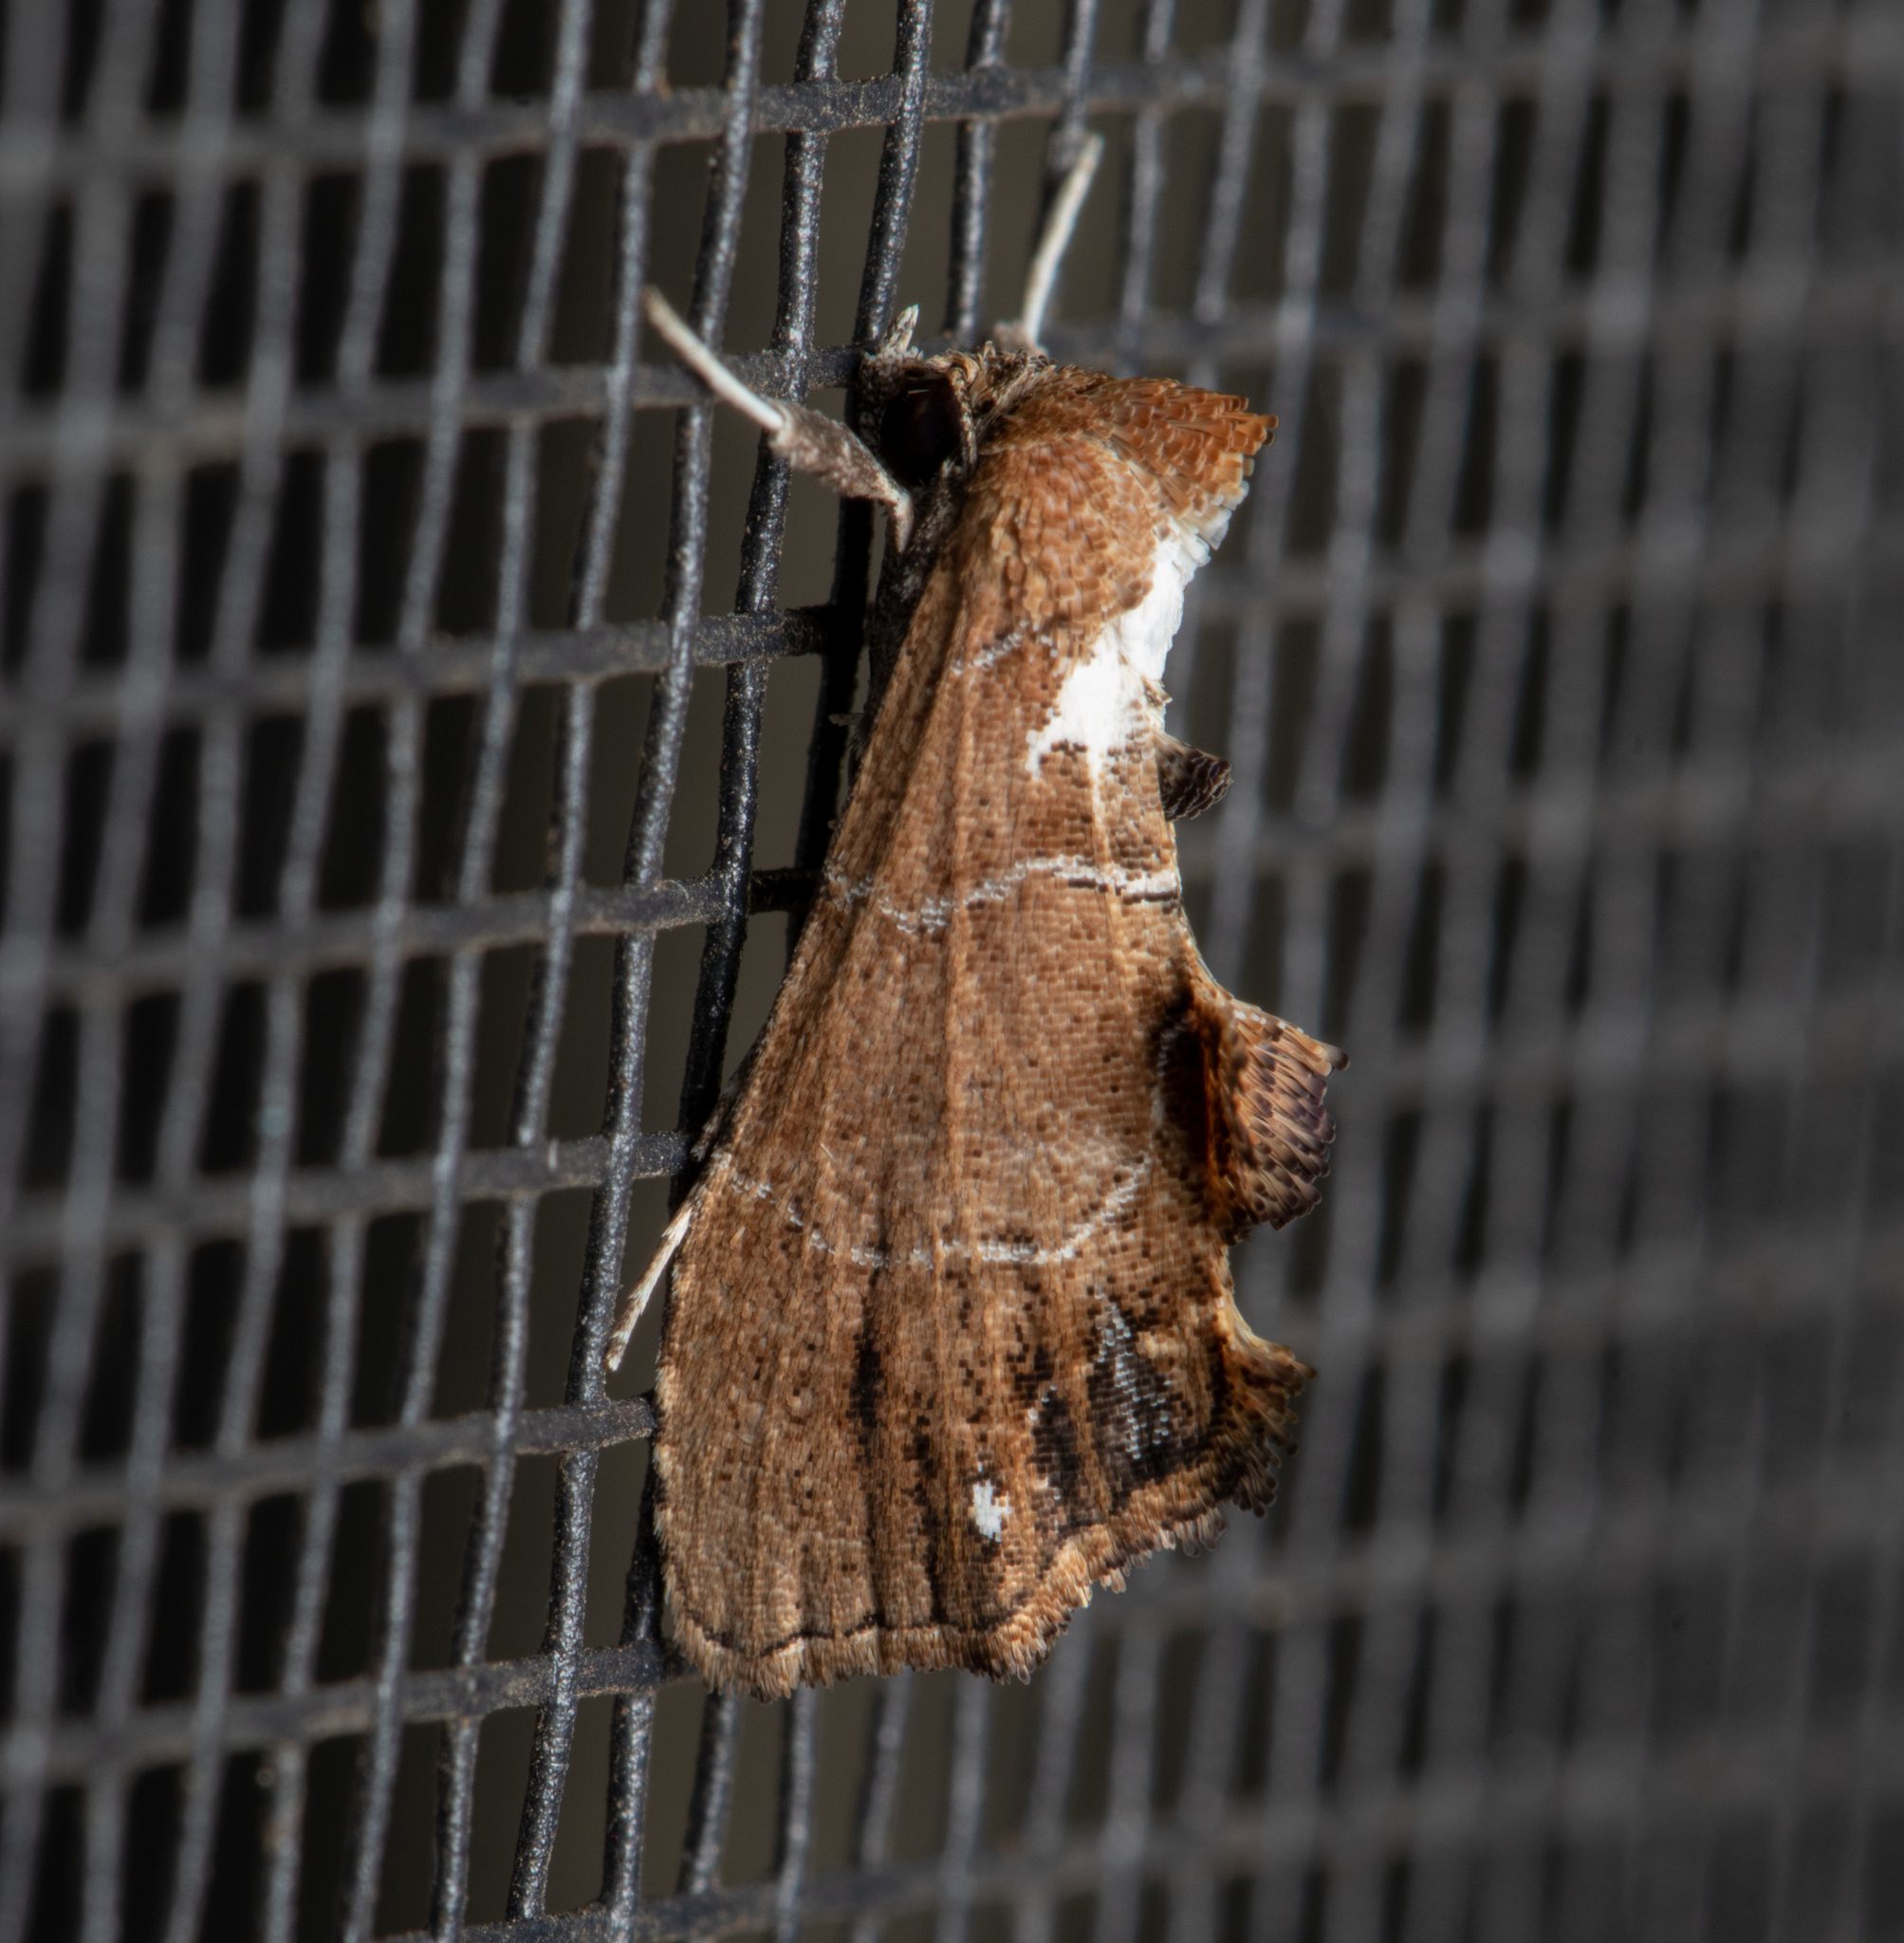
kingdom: Animalia
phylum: Arthropoda
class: Insecta
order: Lepidoptera
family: Erebidae
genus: Arrade
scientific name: Arrade leucocosmalis
